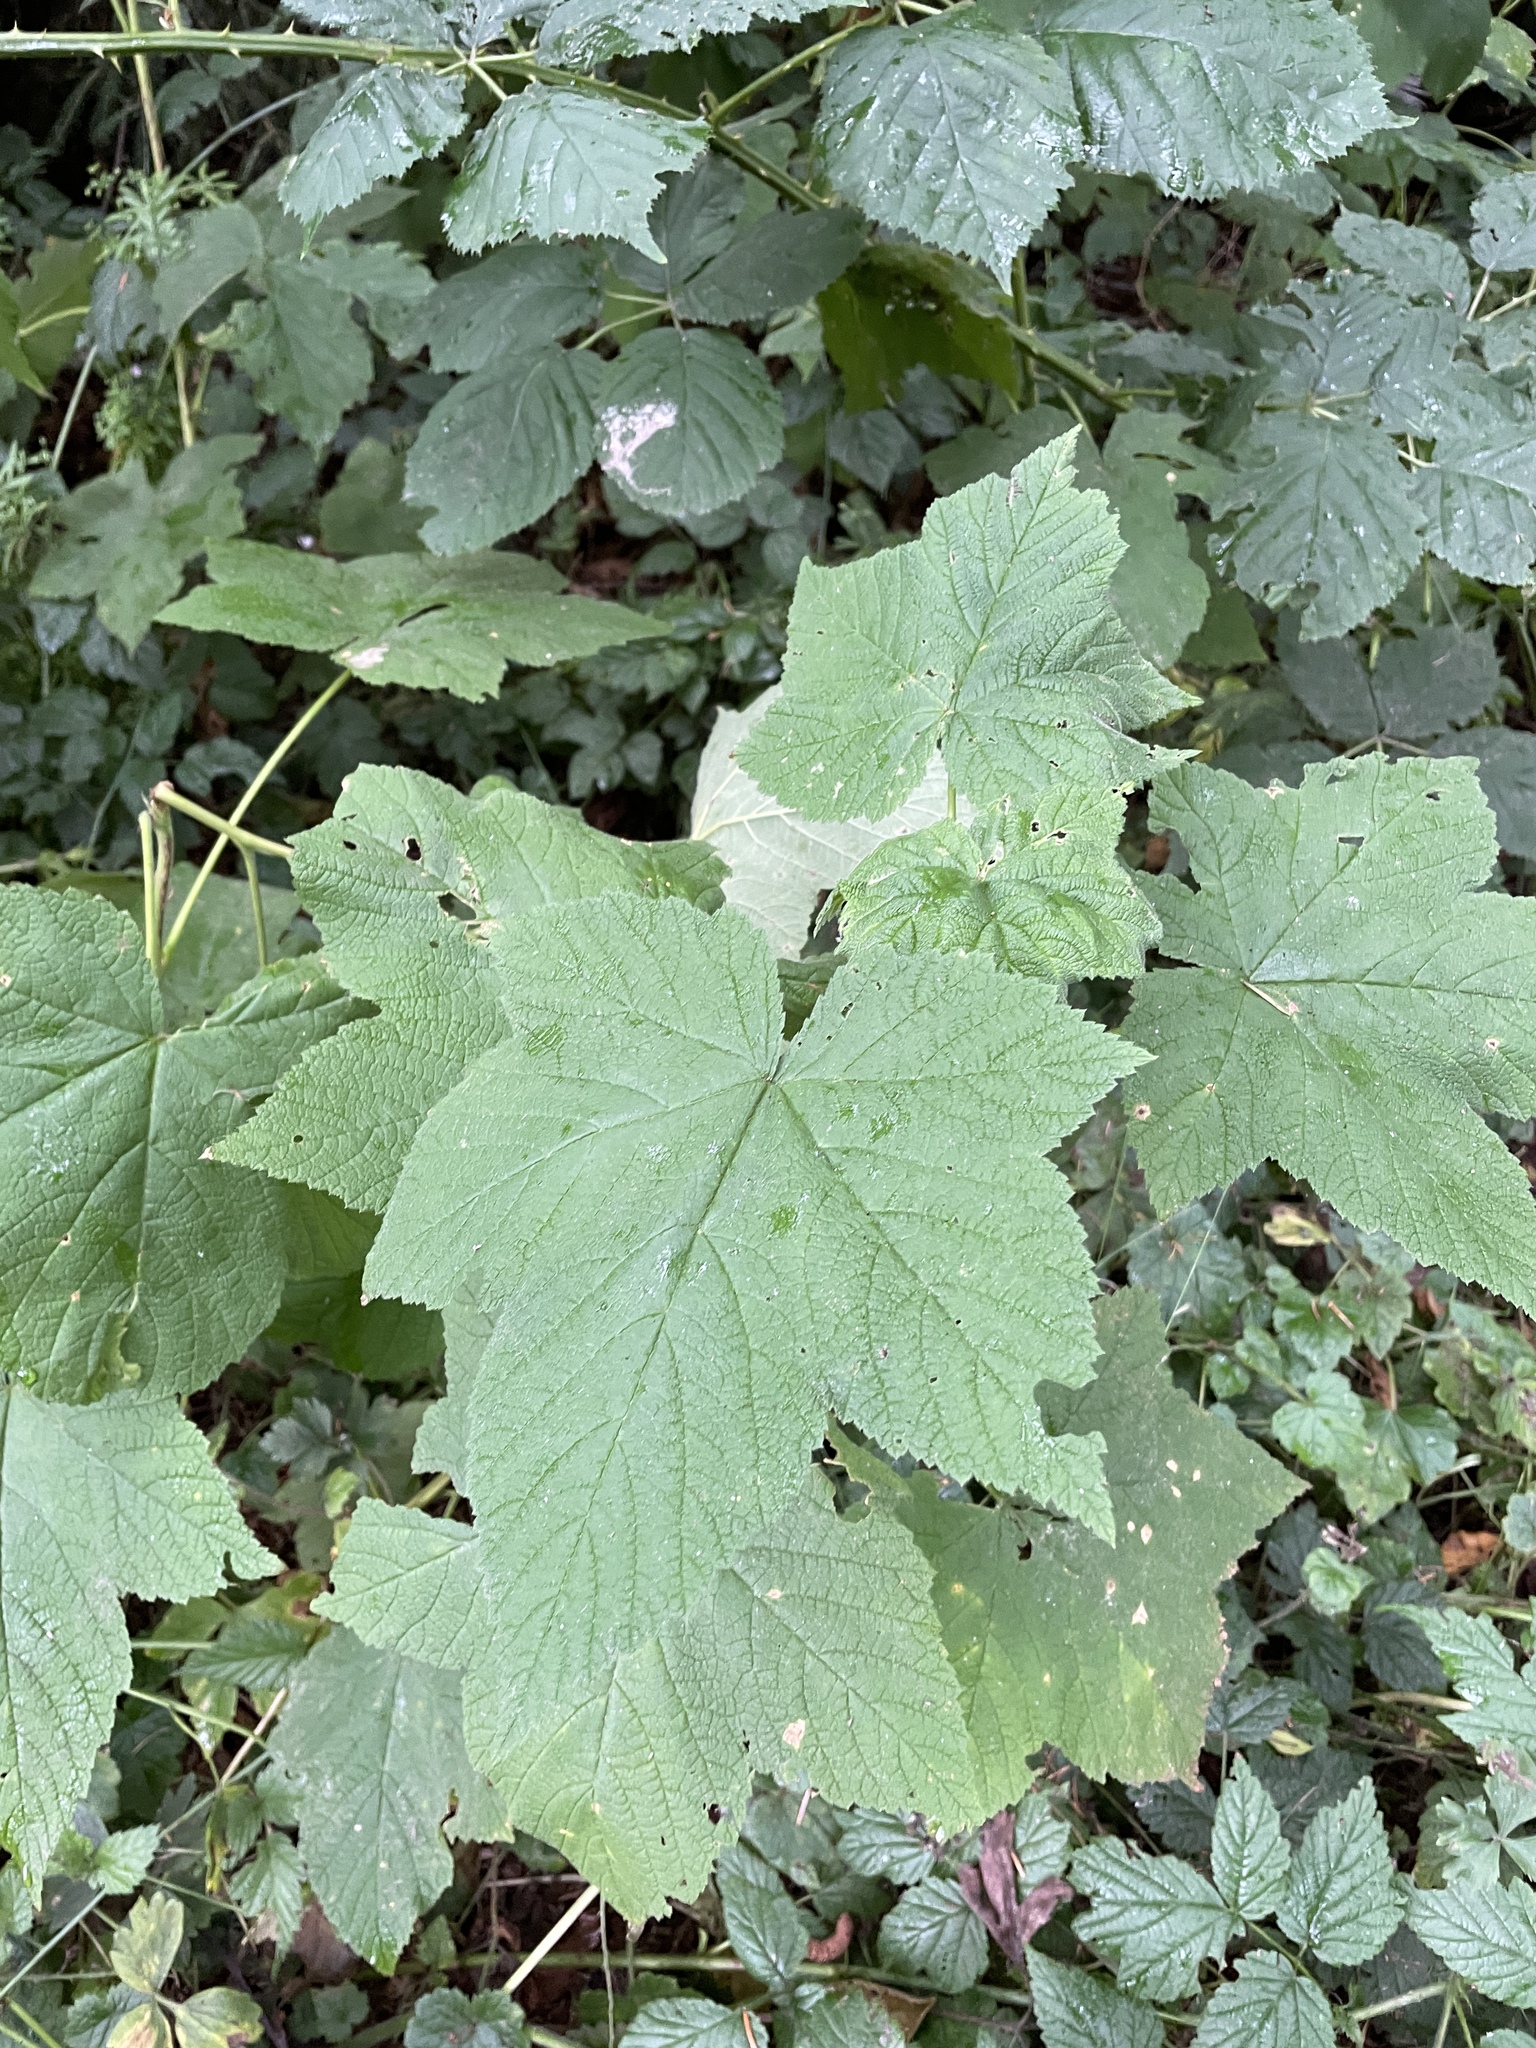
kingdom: Plantae
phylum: Tracheophyta
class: Magnoliopsida
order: Rosales
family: Rosaceae
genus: Rubus
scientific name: Rubus parviflorus
